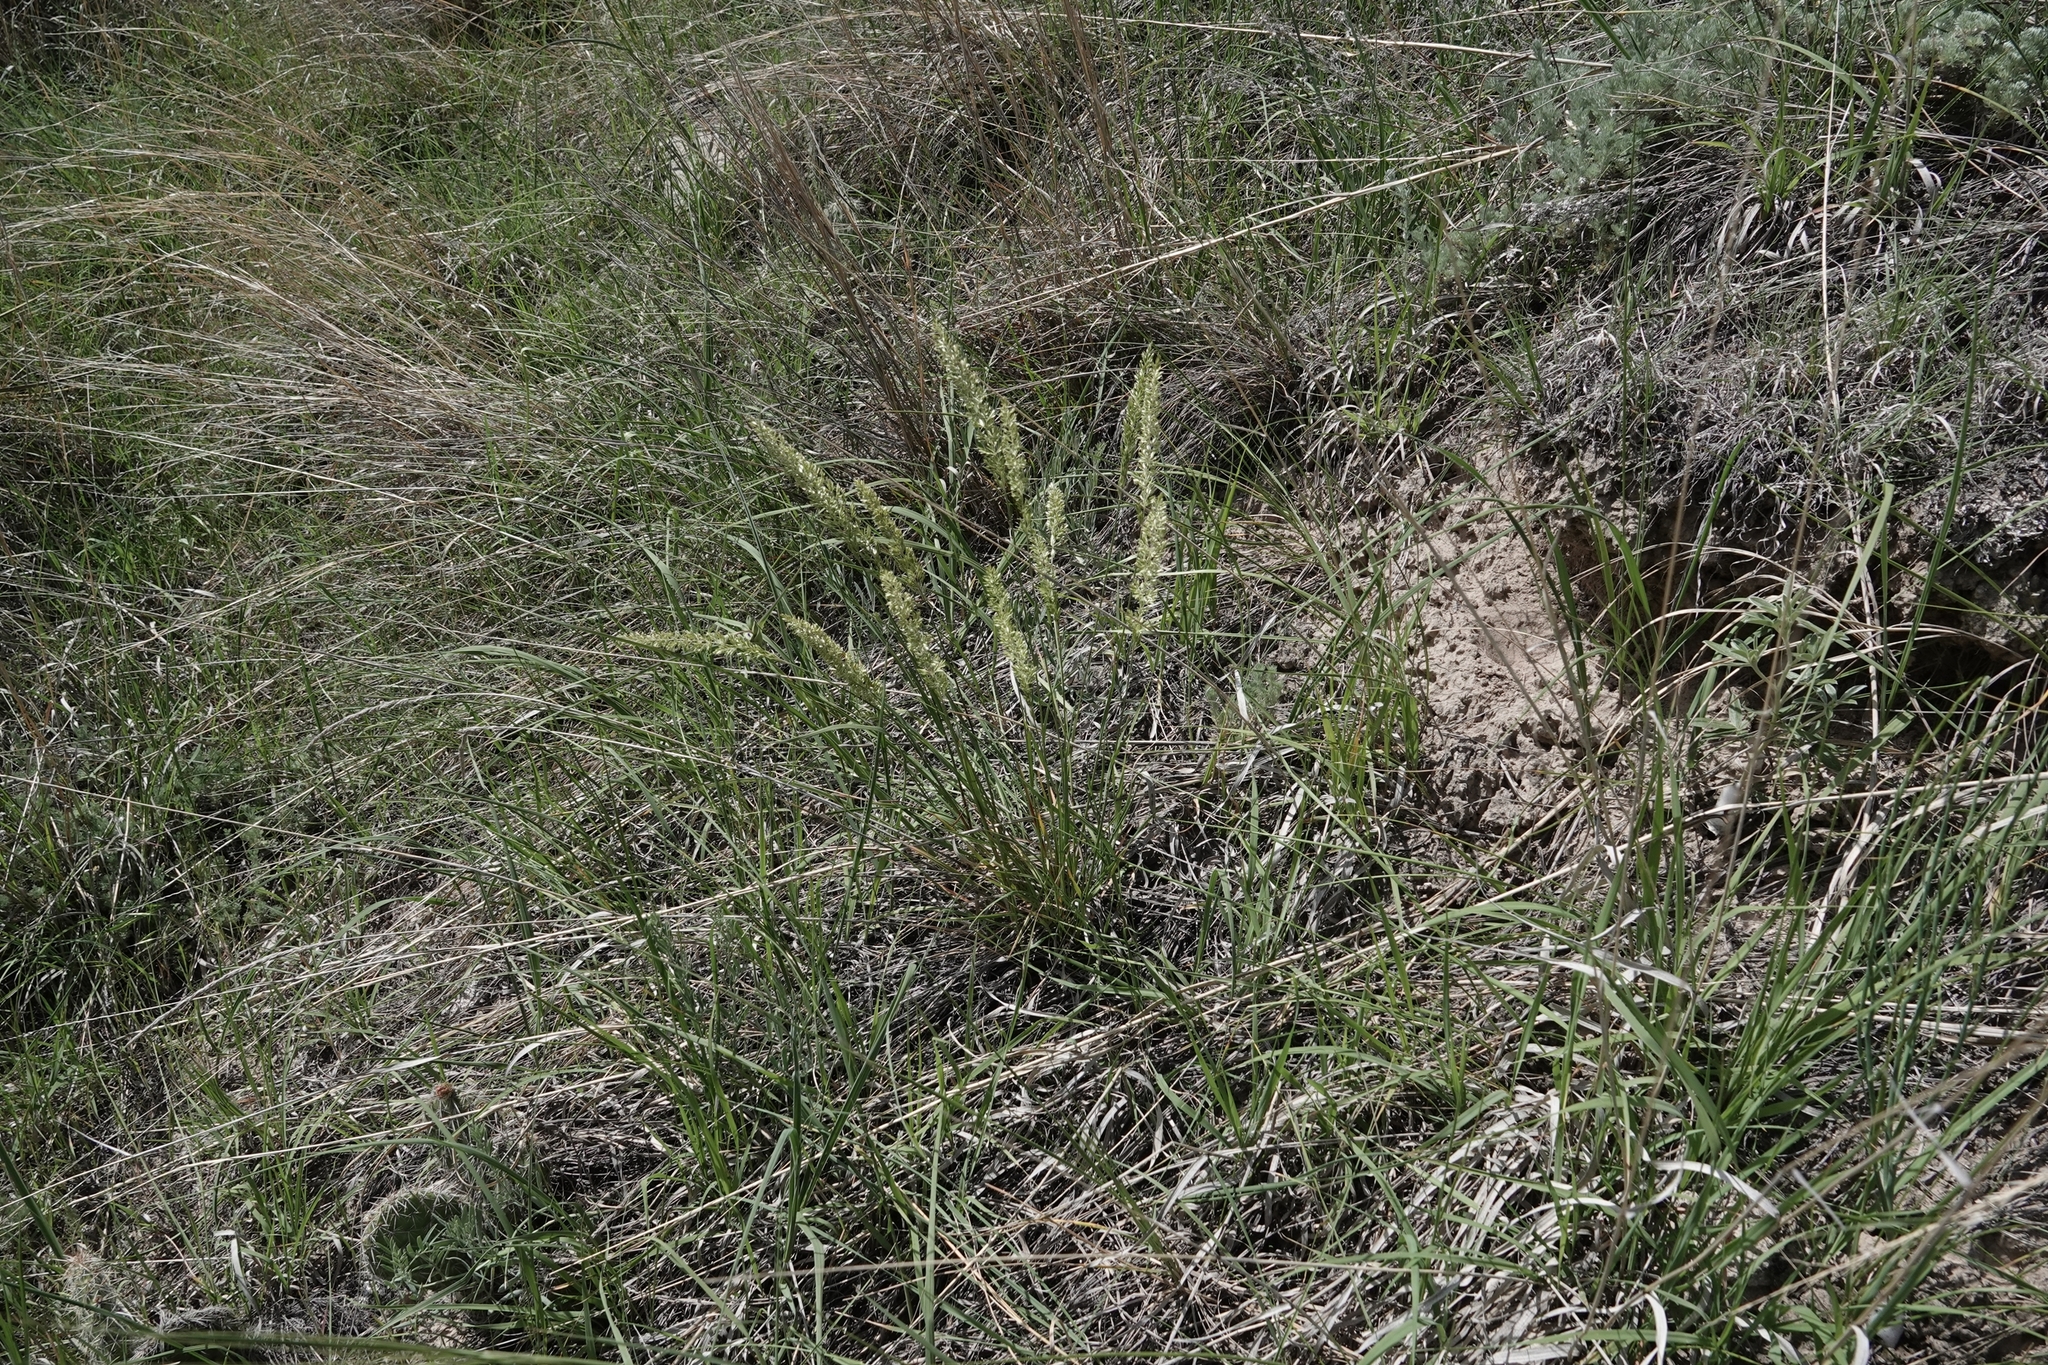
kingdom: Plantae
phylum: Tracheophyta
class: Liliopsida
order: Poales
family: Poaceae
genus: Koeleria
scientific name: Koeleria macrantha
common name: Crested hair-grass
